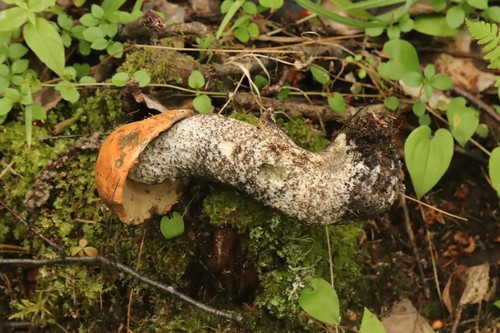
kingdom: Fungi
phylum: Basidiomycota
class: Agaricomycetes
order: Boletales
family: Boletaceae
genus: Leccinum
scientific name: Leccinum versipelle
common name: Orange birch bolete
